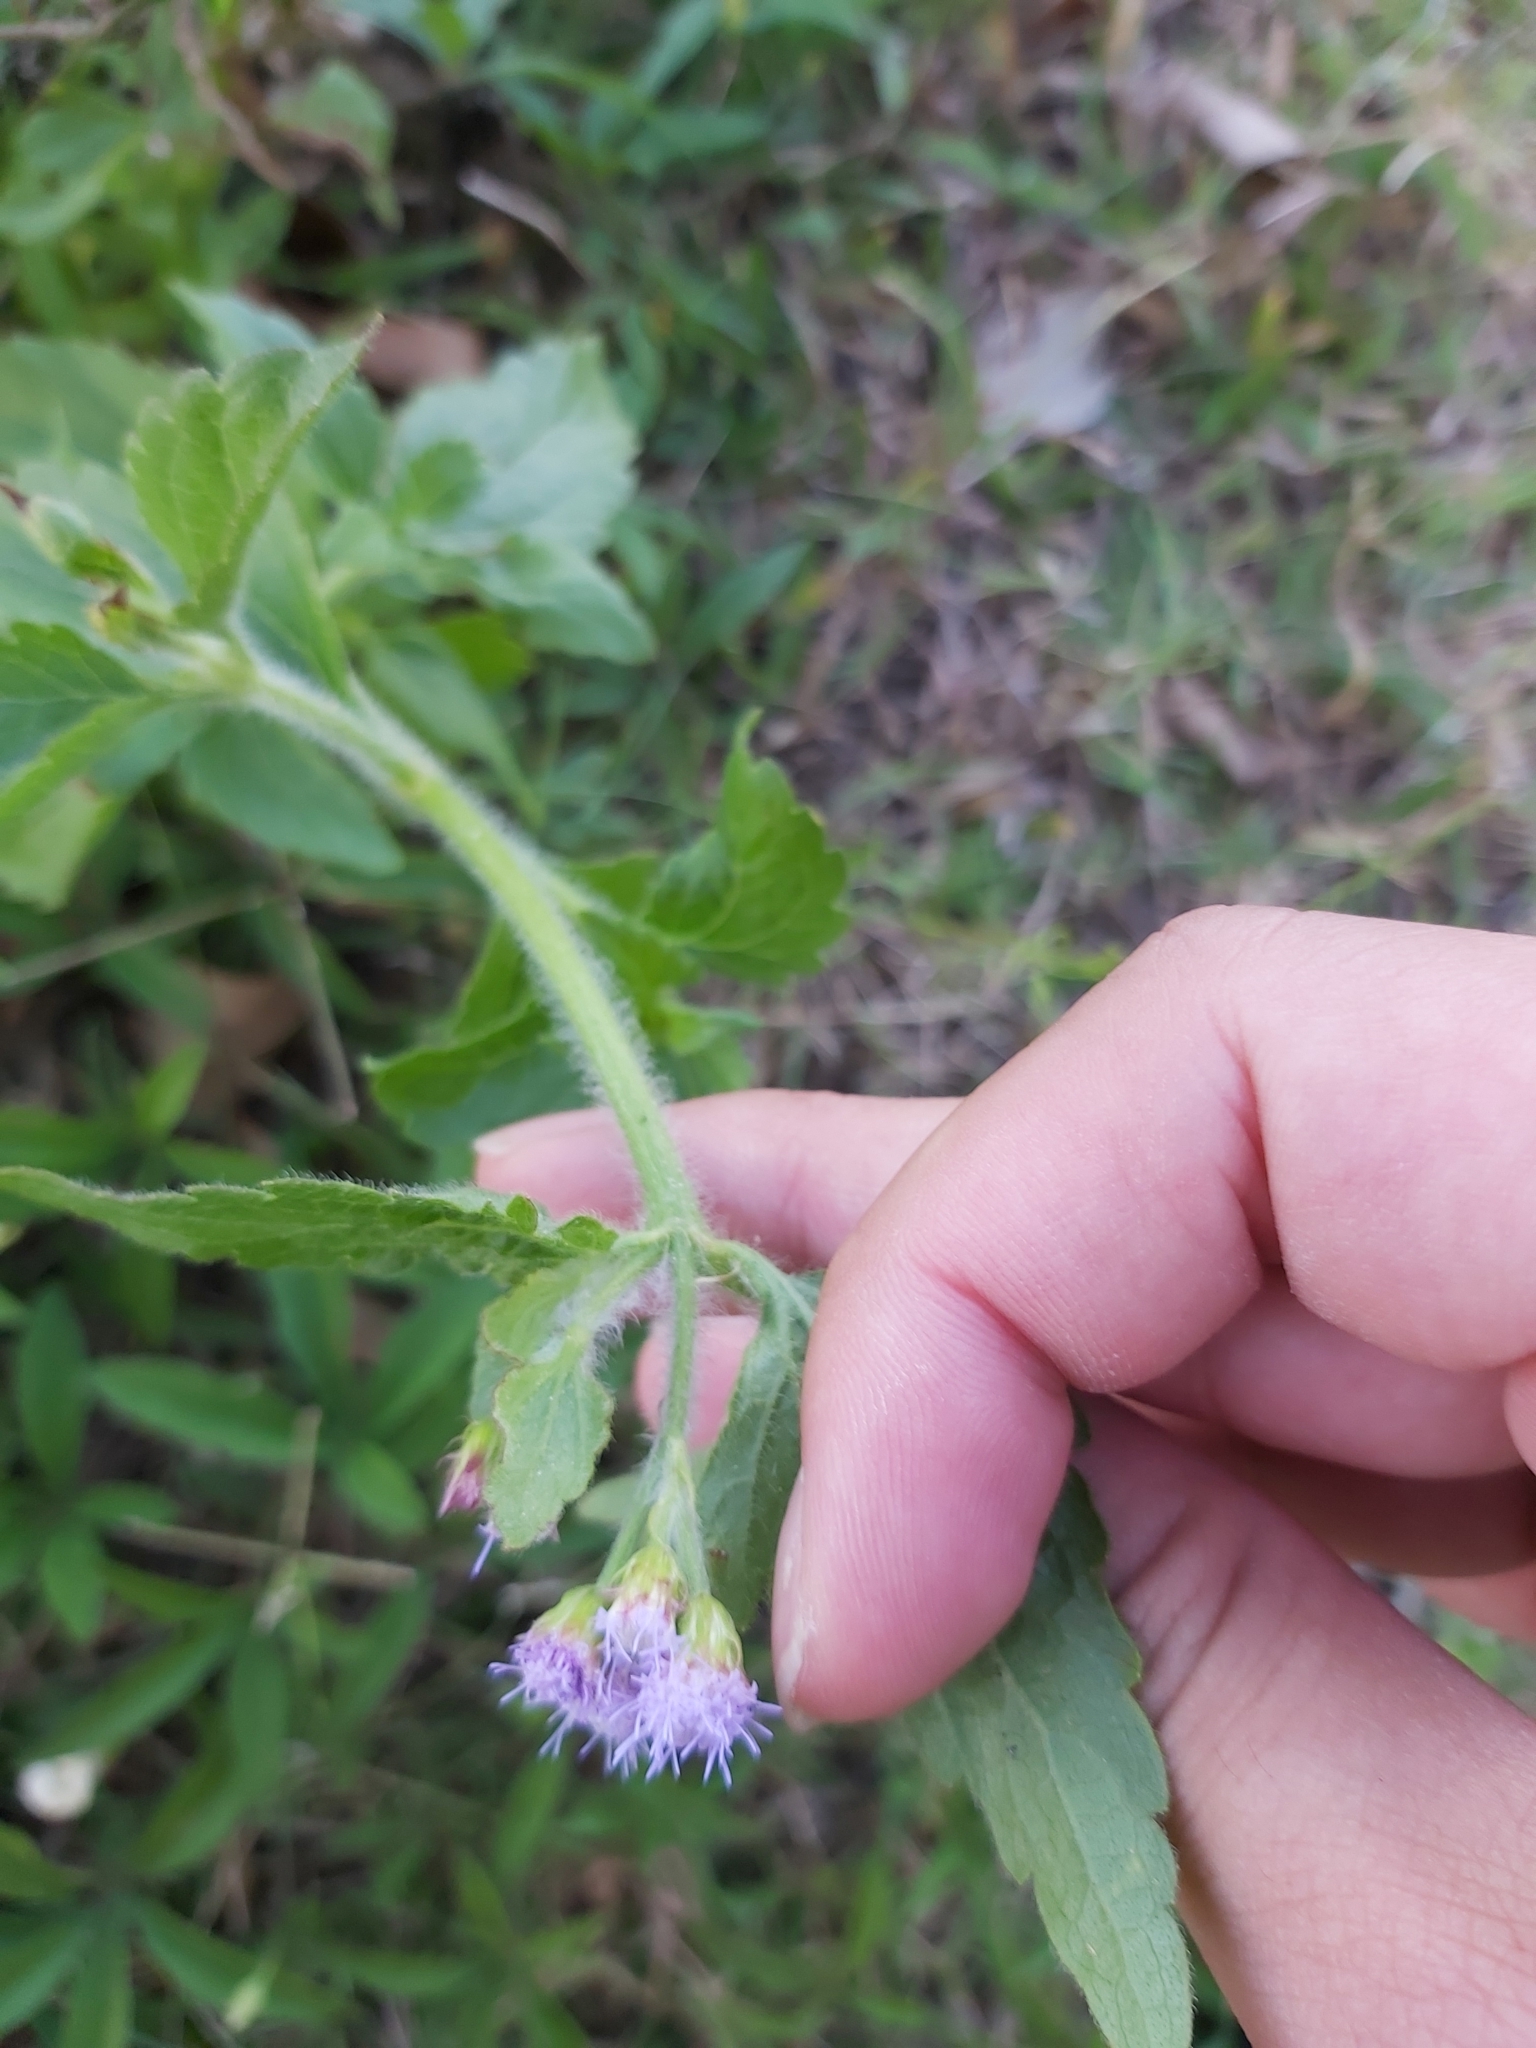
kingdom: Plantae
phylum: Tracheophyta
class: Magnoliopsida
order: Asterales
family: Asteraceae
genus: Praxelis
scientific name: Praxelis clematidea
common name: Praxelis
